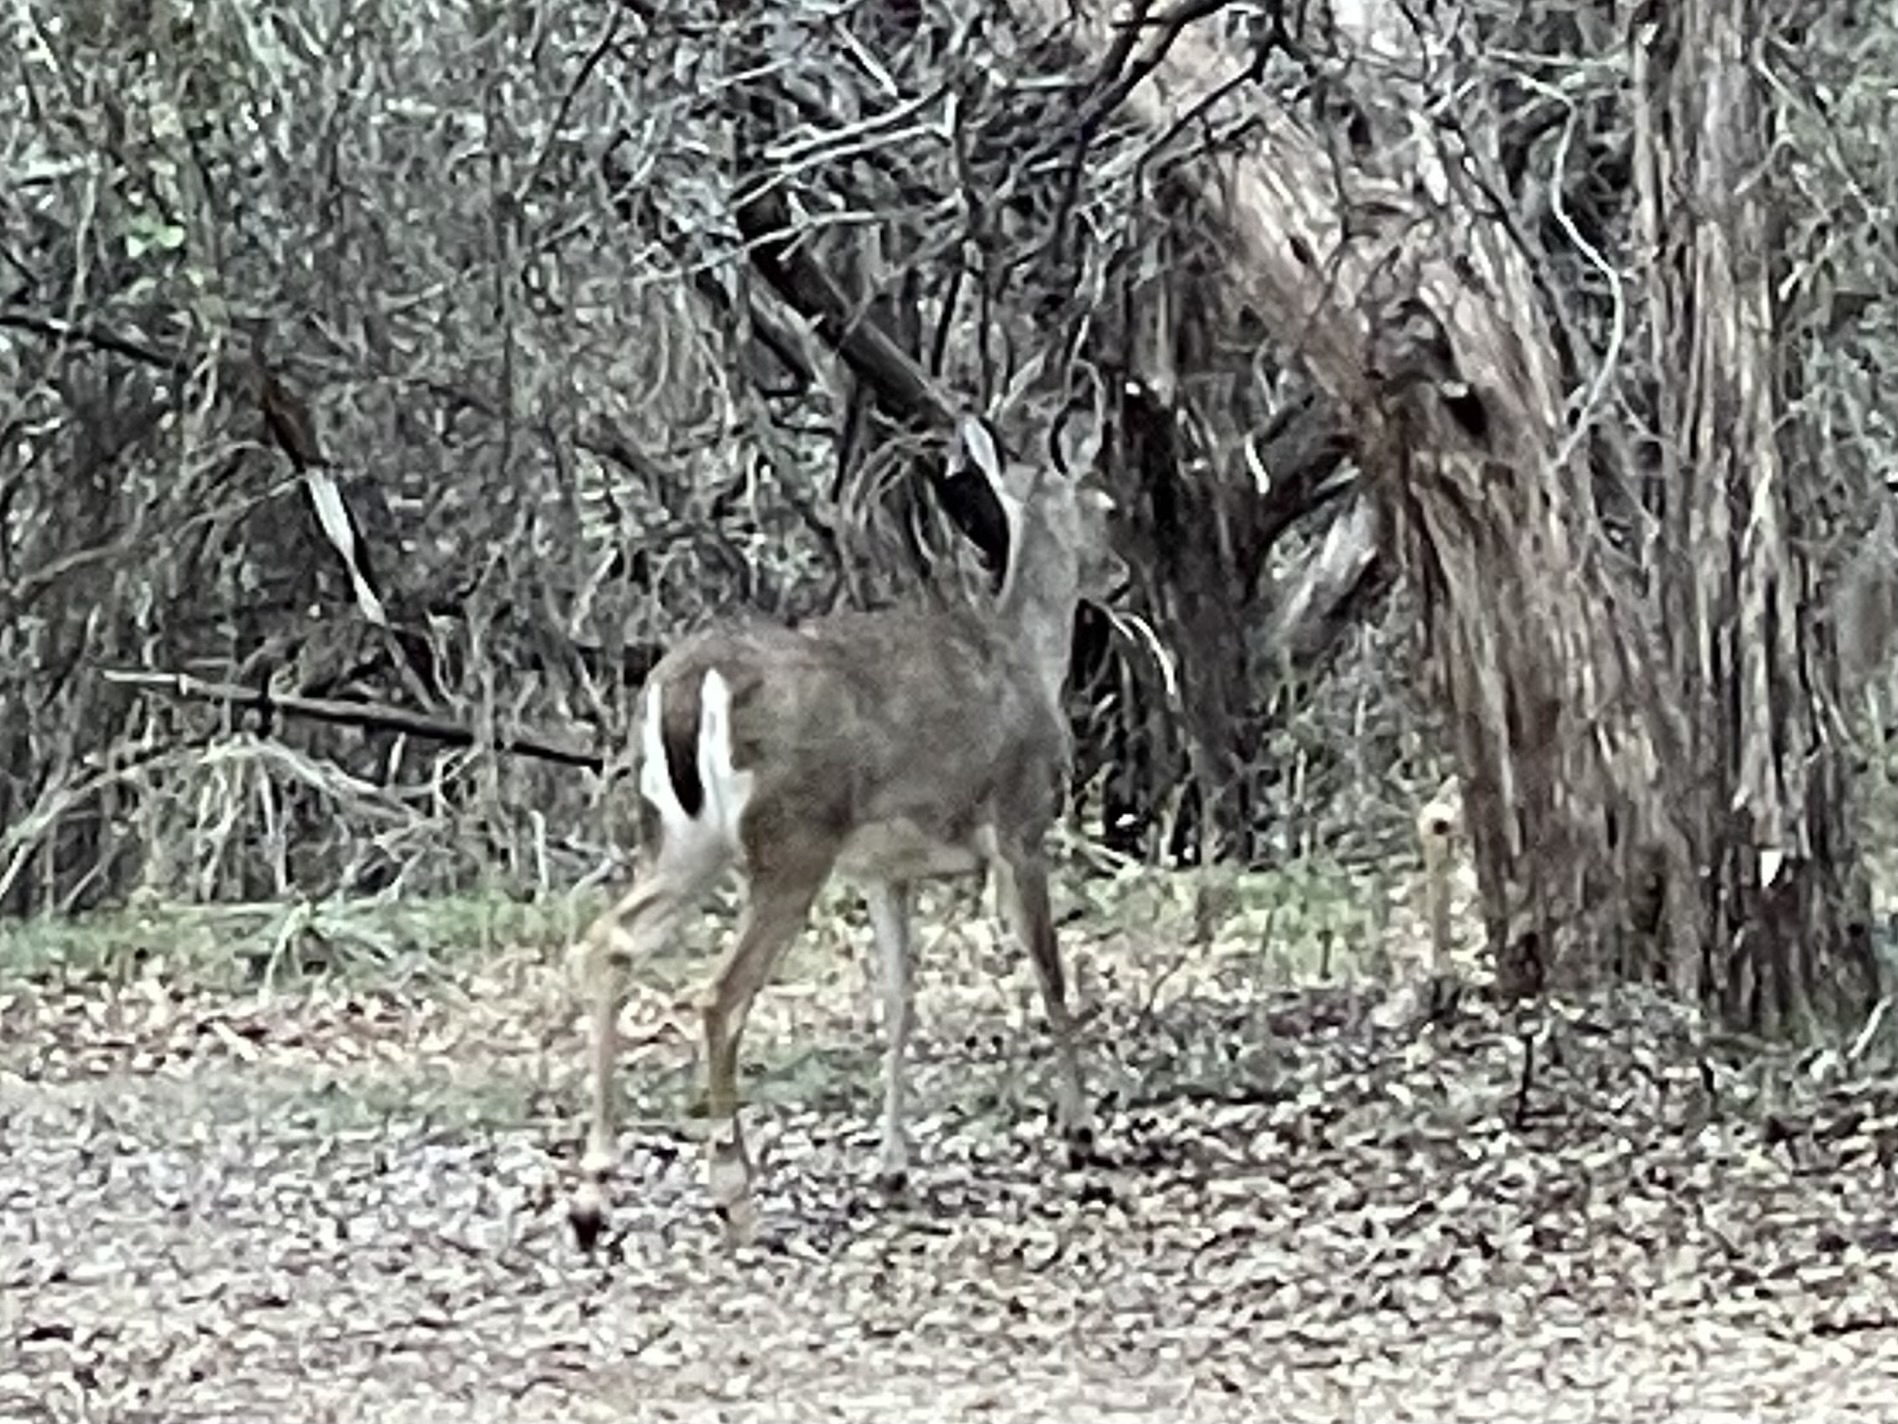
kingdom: Animalia
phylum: Chordata
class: Mammalia
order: Artiodactyla
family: Cervidae
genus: Odocoileus
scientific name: Odocoileus virginianus
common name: White-tailed deer
